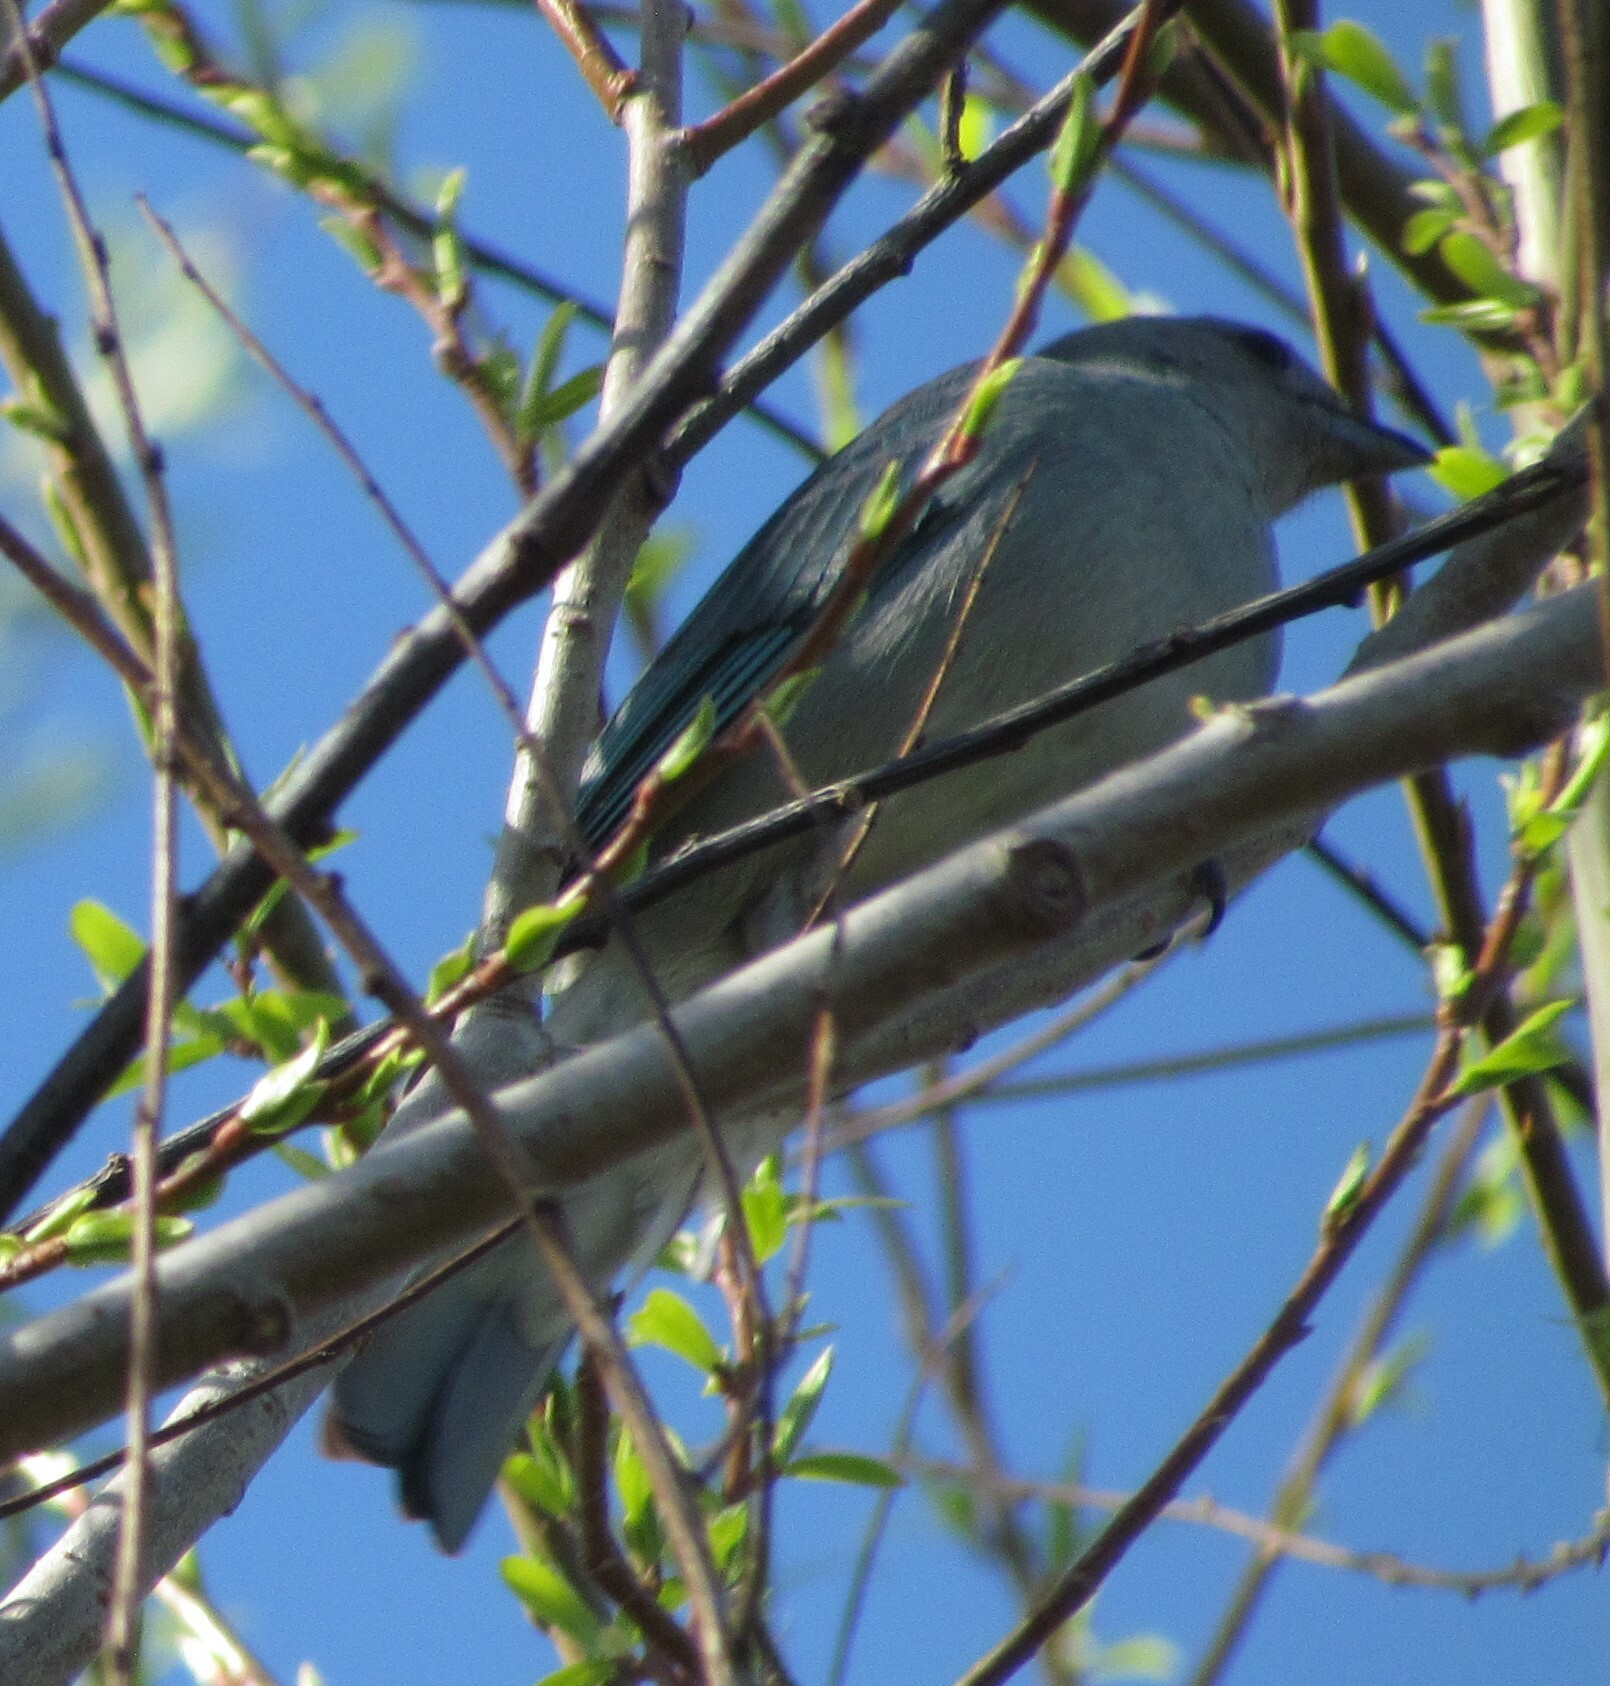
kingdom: Animalia
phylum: Chordata
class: Aves
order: Passeriformes
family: Thraupidae
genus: Thraupis
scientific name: Thraupis sayaca
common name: Sayaca tanager
